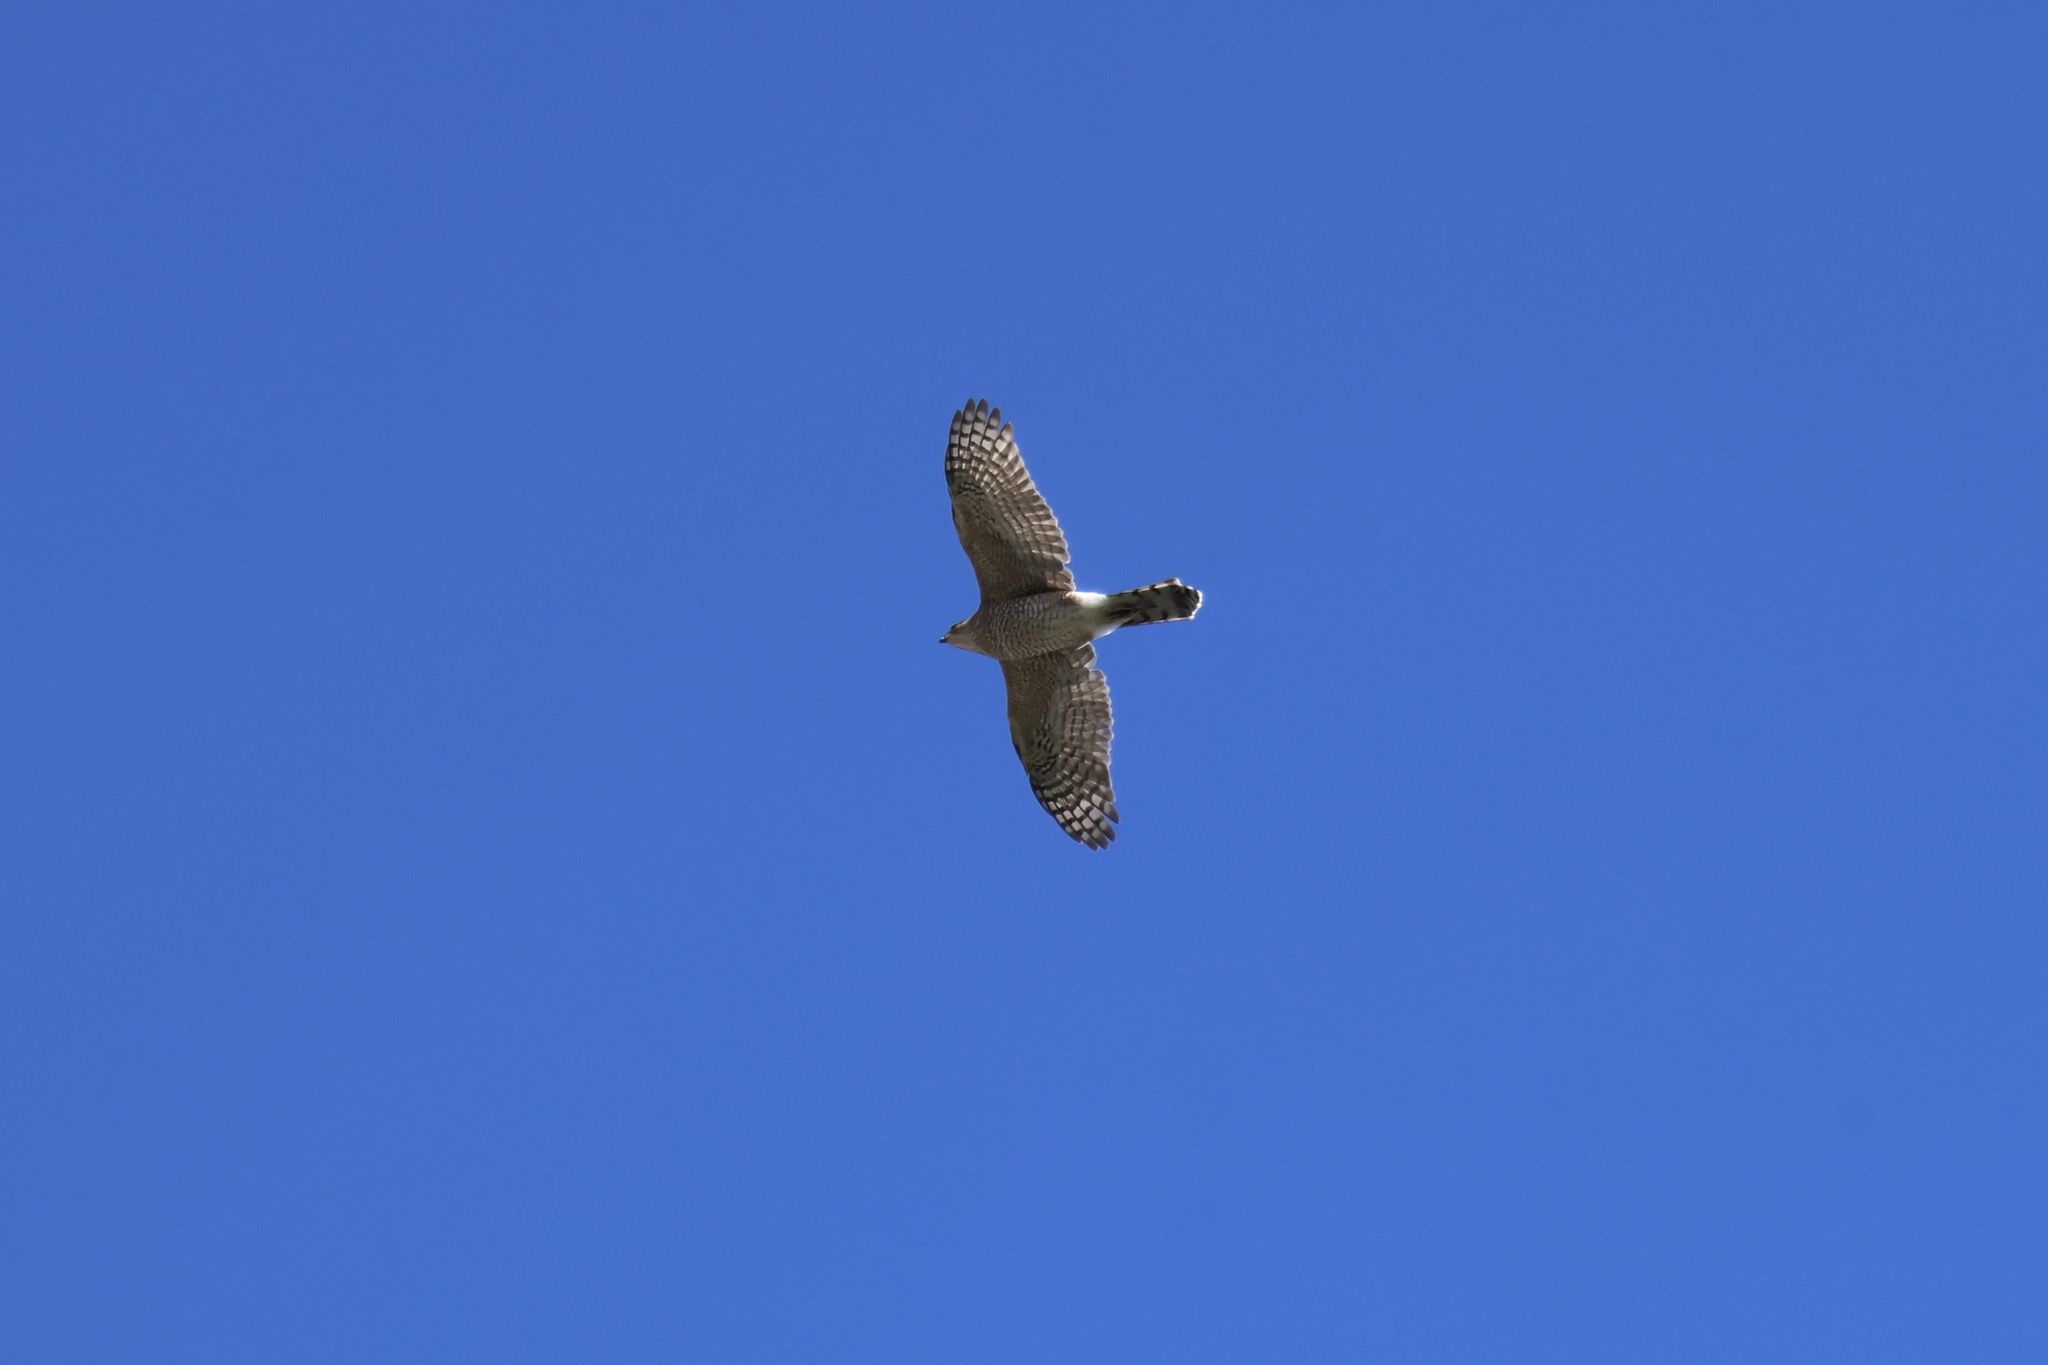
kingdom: Animalia
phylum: Chordata
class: Aves
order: Accipitriformes
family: Accipitridae
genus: Accipiter
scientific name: Accipiter cooperii
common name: Cooper's hawk
